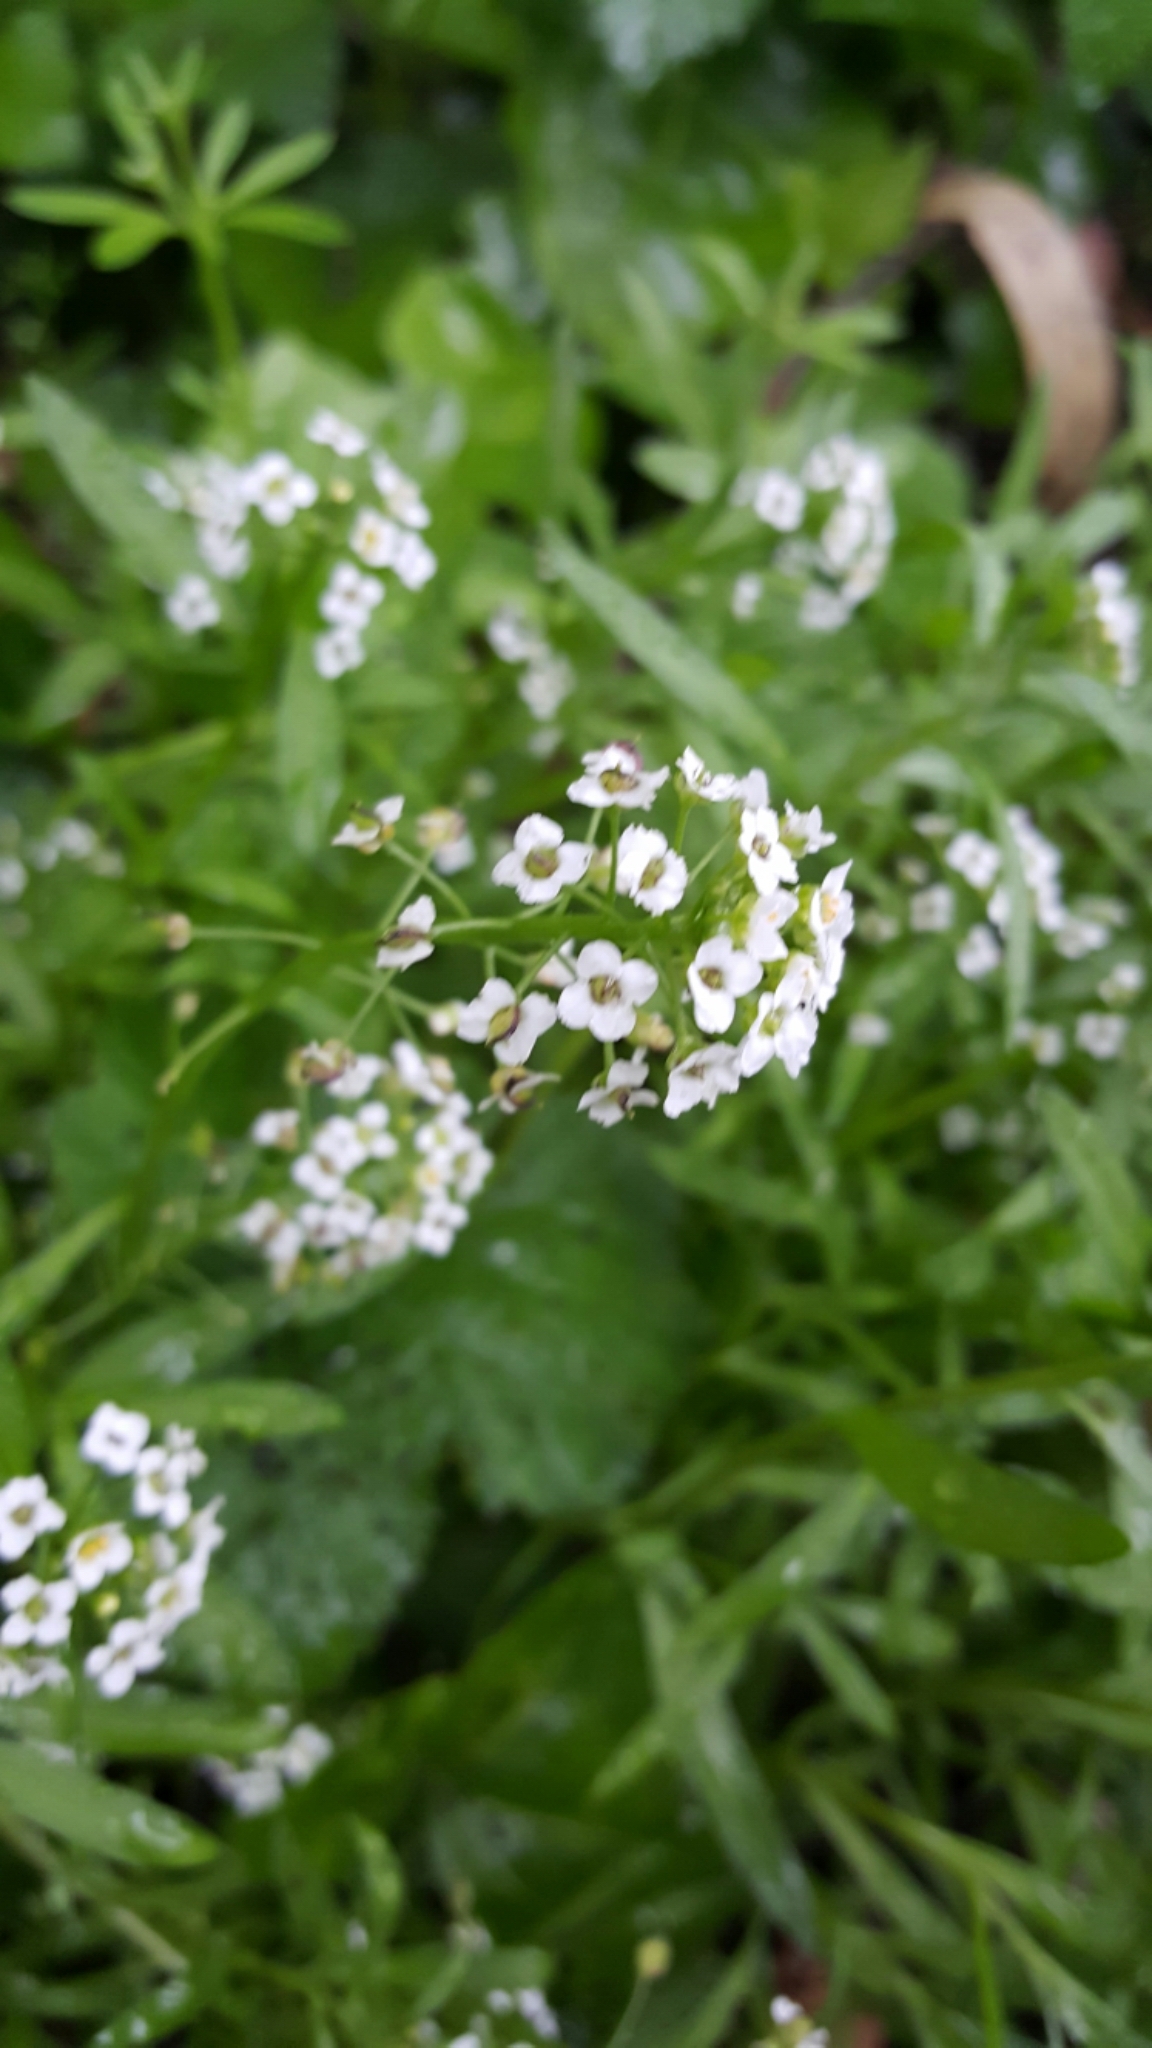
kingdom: Plantae
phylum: Tracheophyta
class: Magnoliopsida
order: Brassicales
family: Brassicaceae
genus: Lobularia
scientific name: Lobularia maritima
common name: Sweet alison
